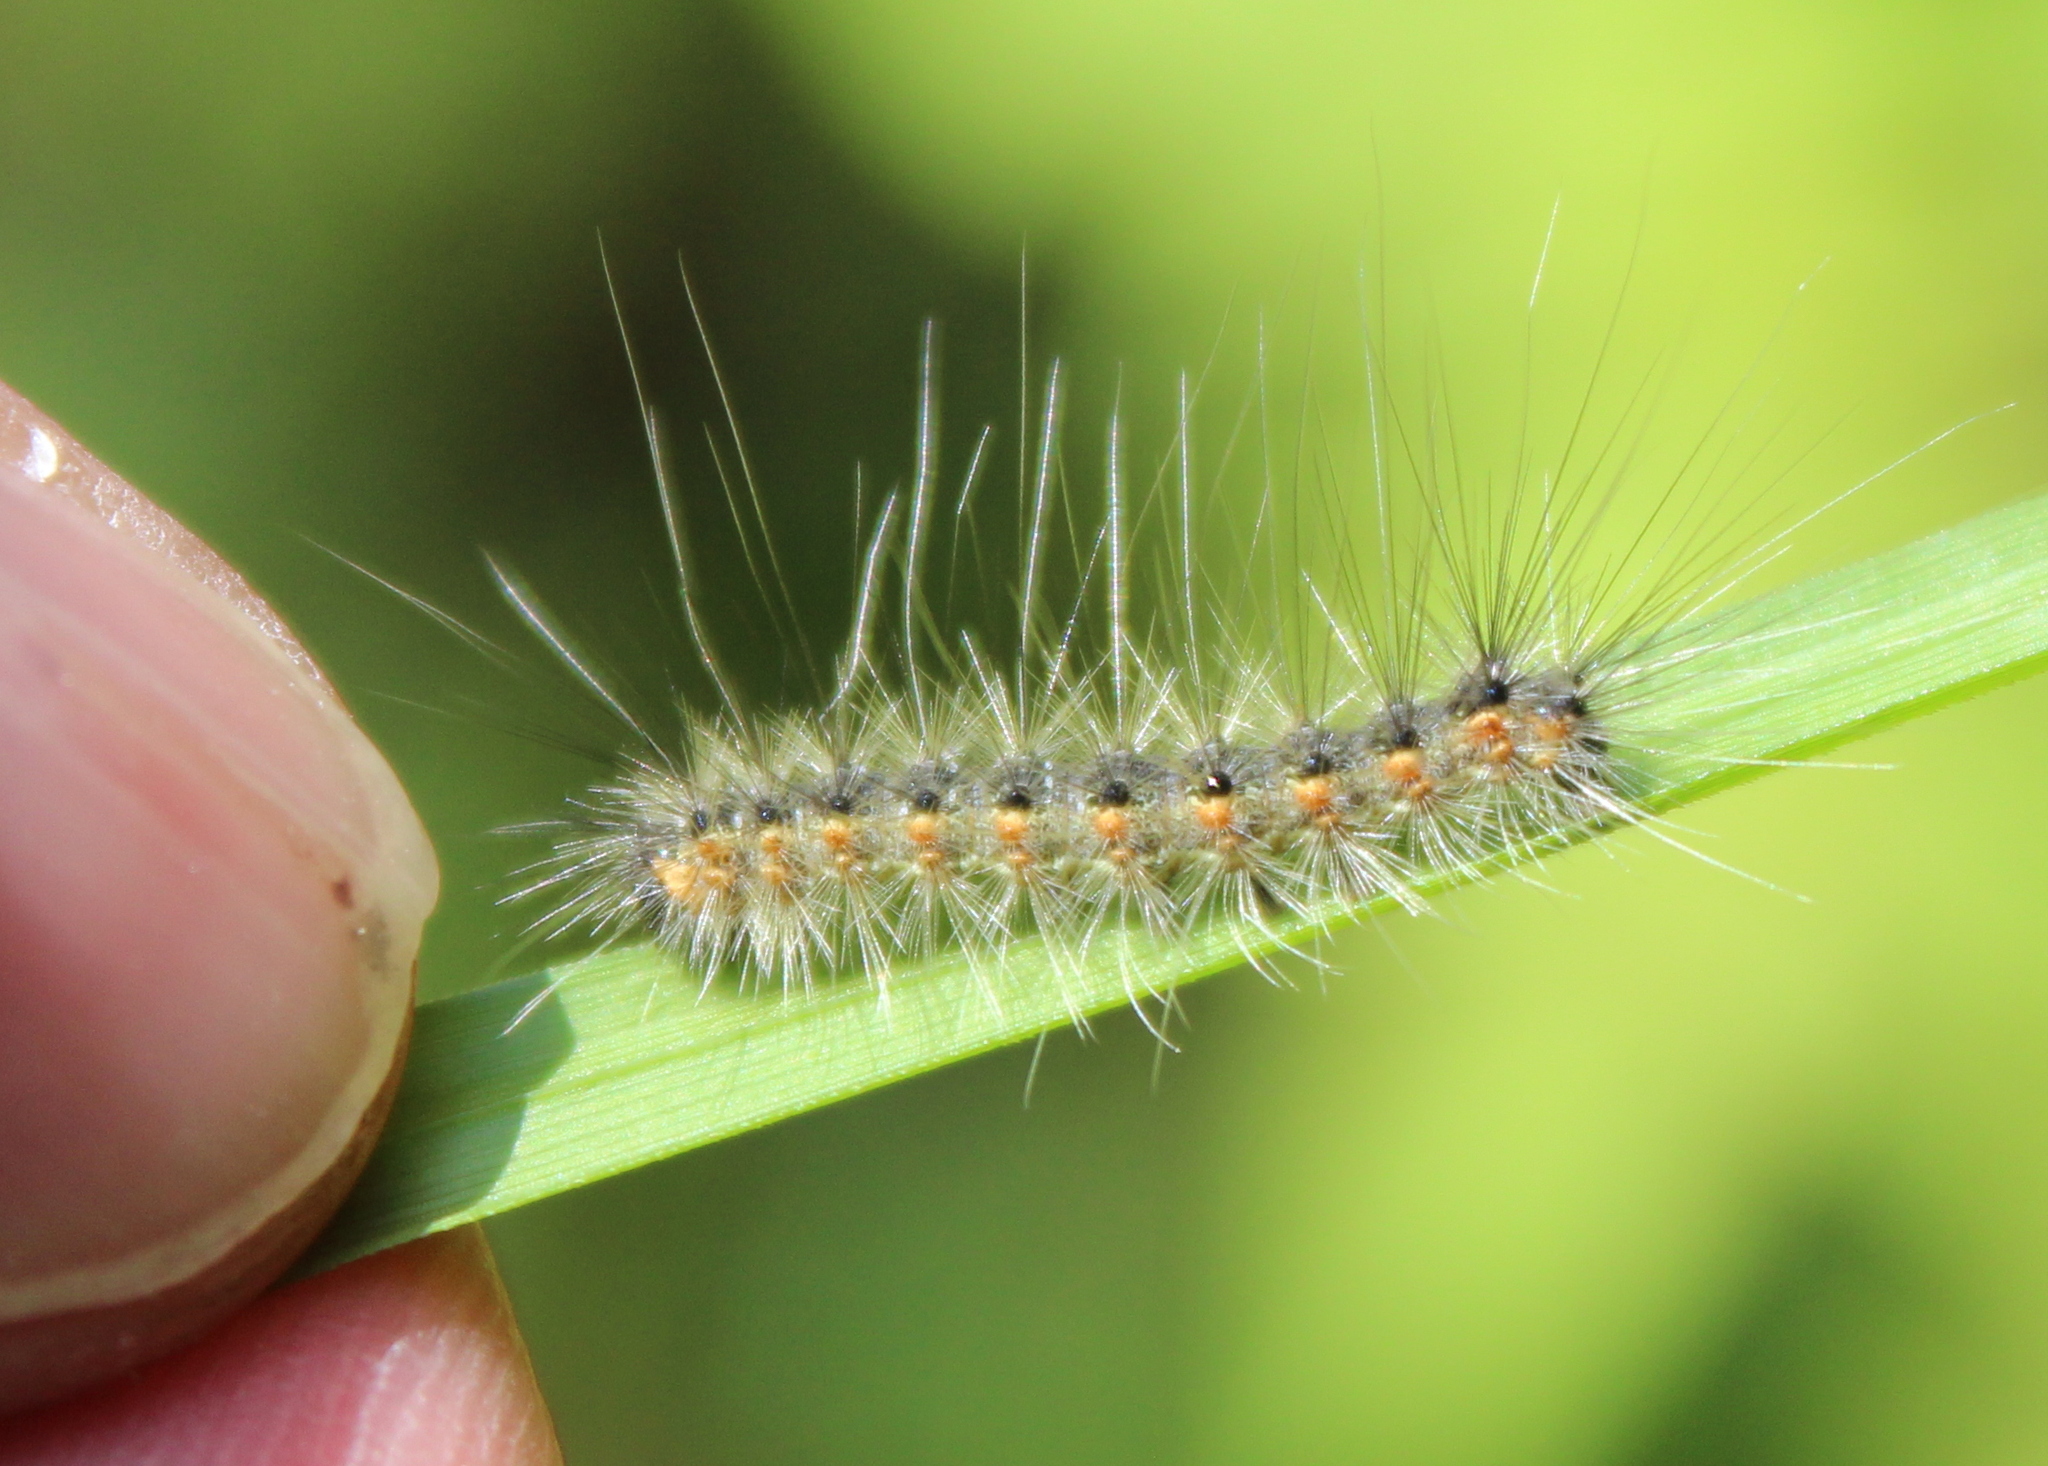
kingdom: Animalia
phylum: Arthropoda
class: Insecta
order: Lepidoptera
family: Erebidae
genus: Hyphantria
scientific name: Hyphantria cunea
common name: American white moth
